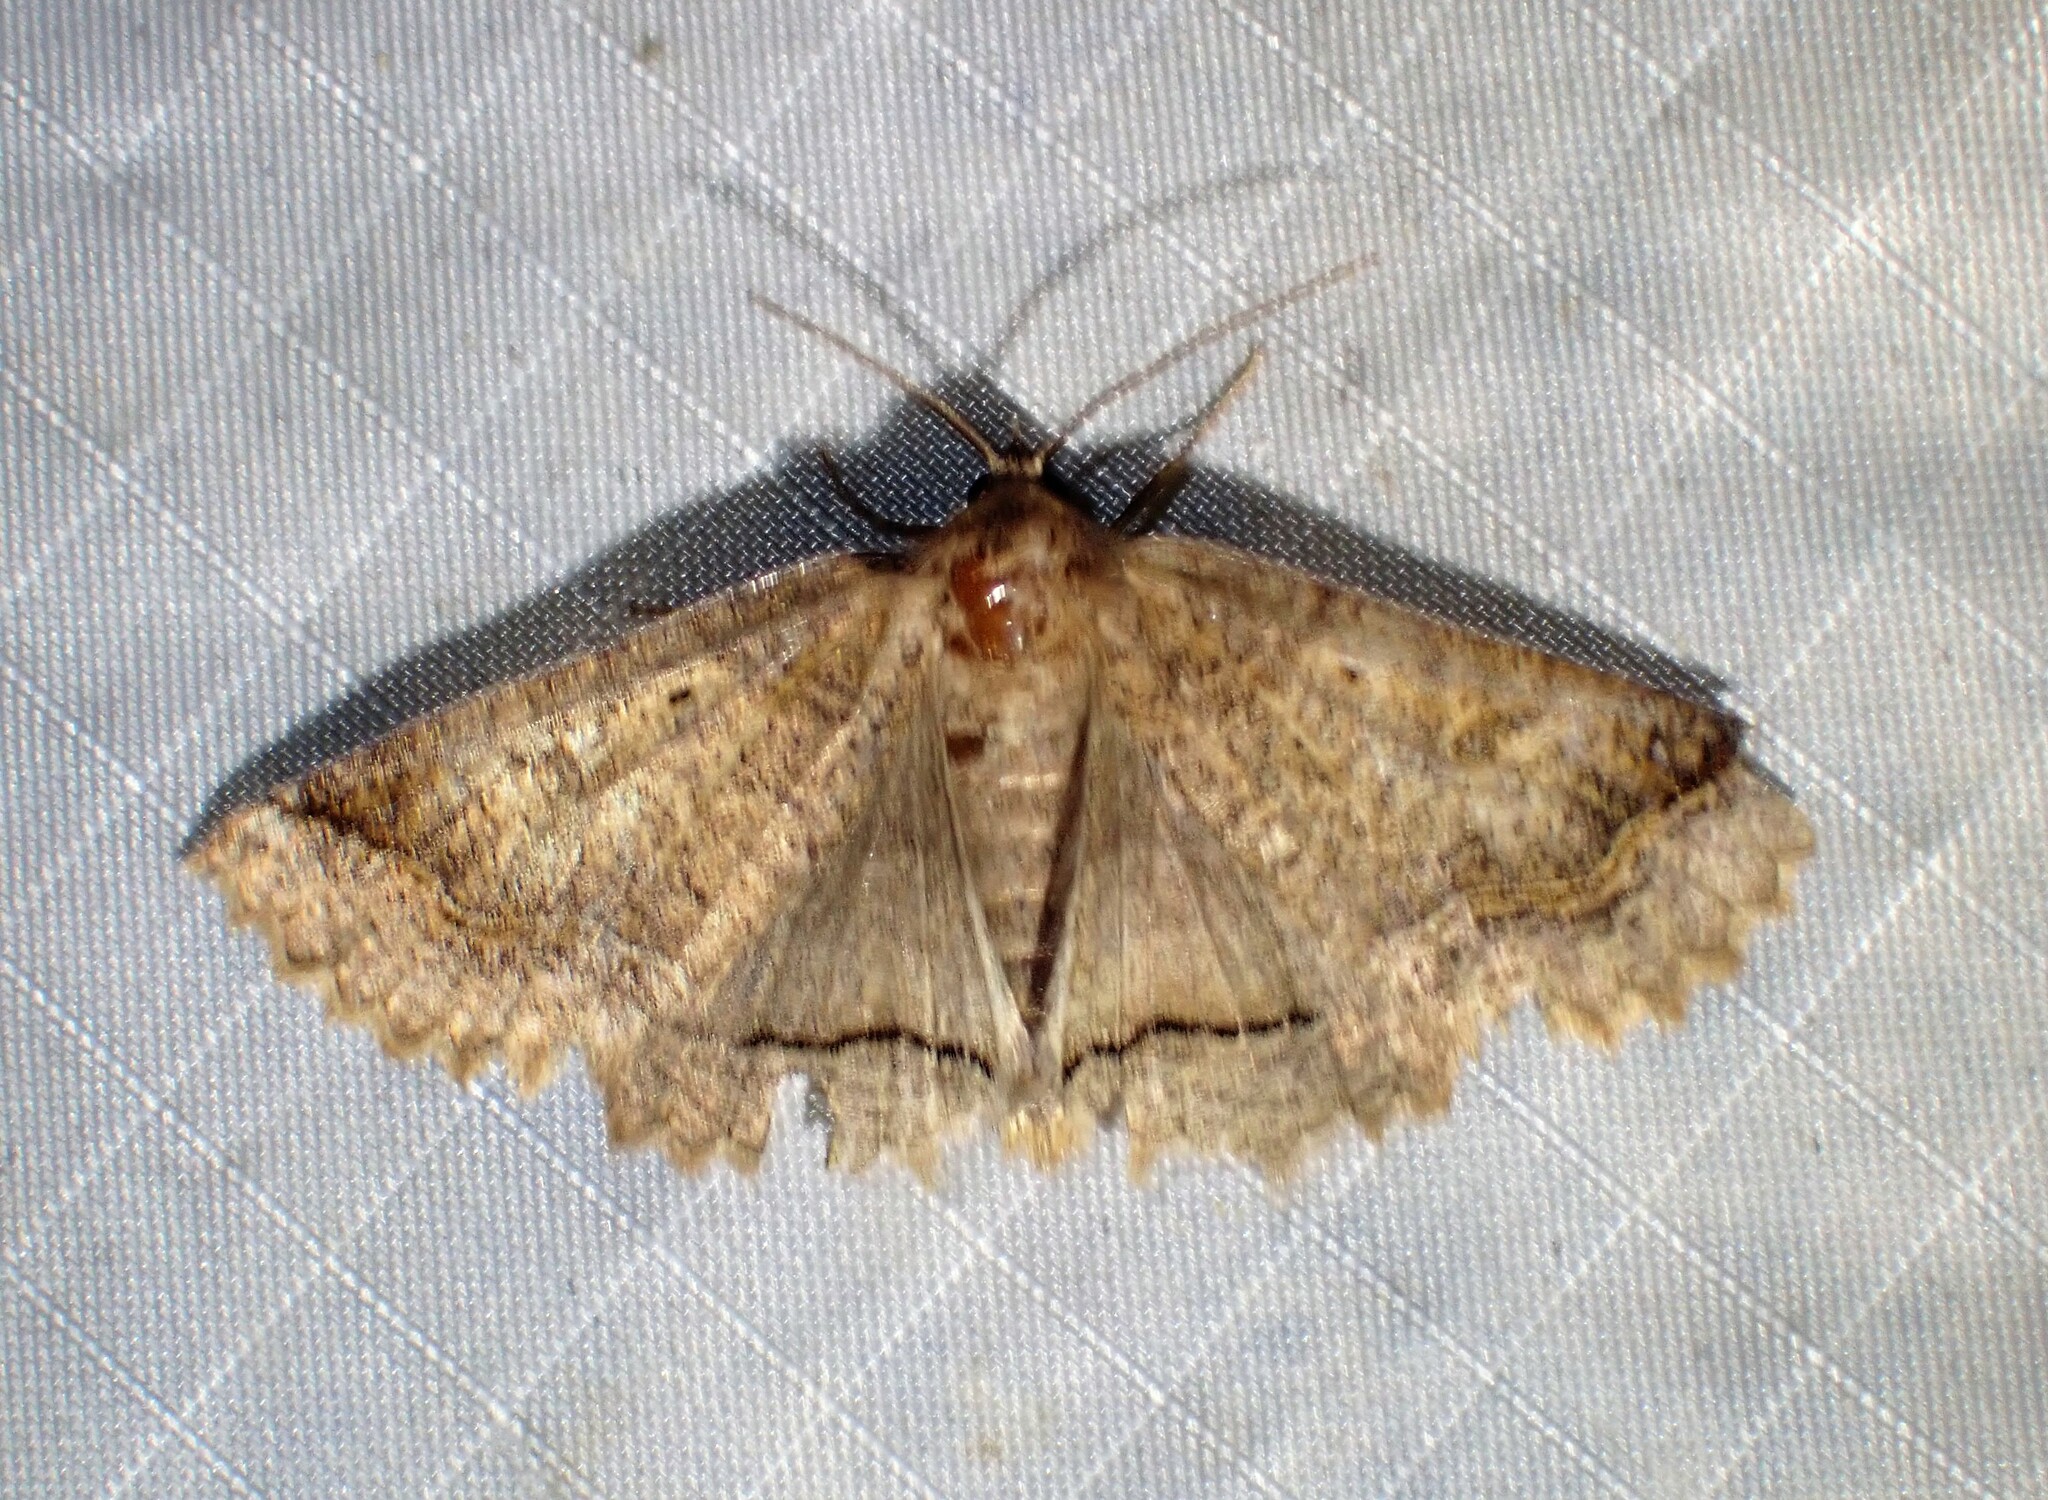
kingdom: Animalia
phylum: Arthropoda
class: Insecta
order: Lepidoptera
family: Erebidae
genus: Zale
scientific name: Zale unilineata
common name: One-lined zale moth
